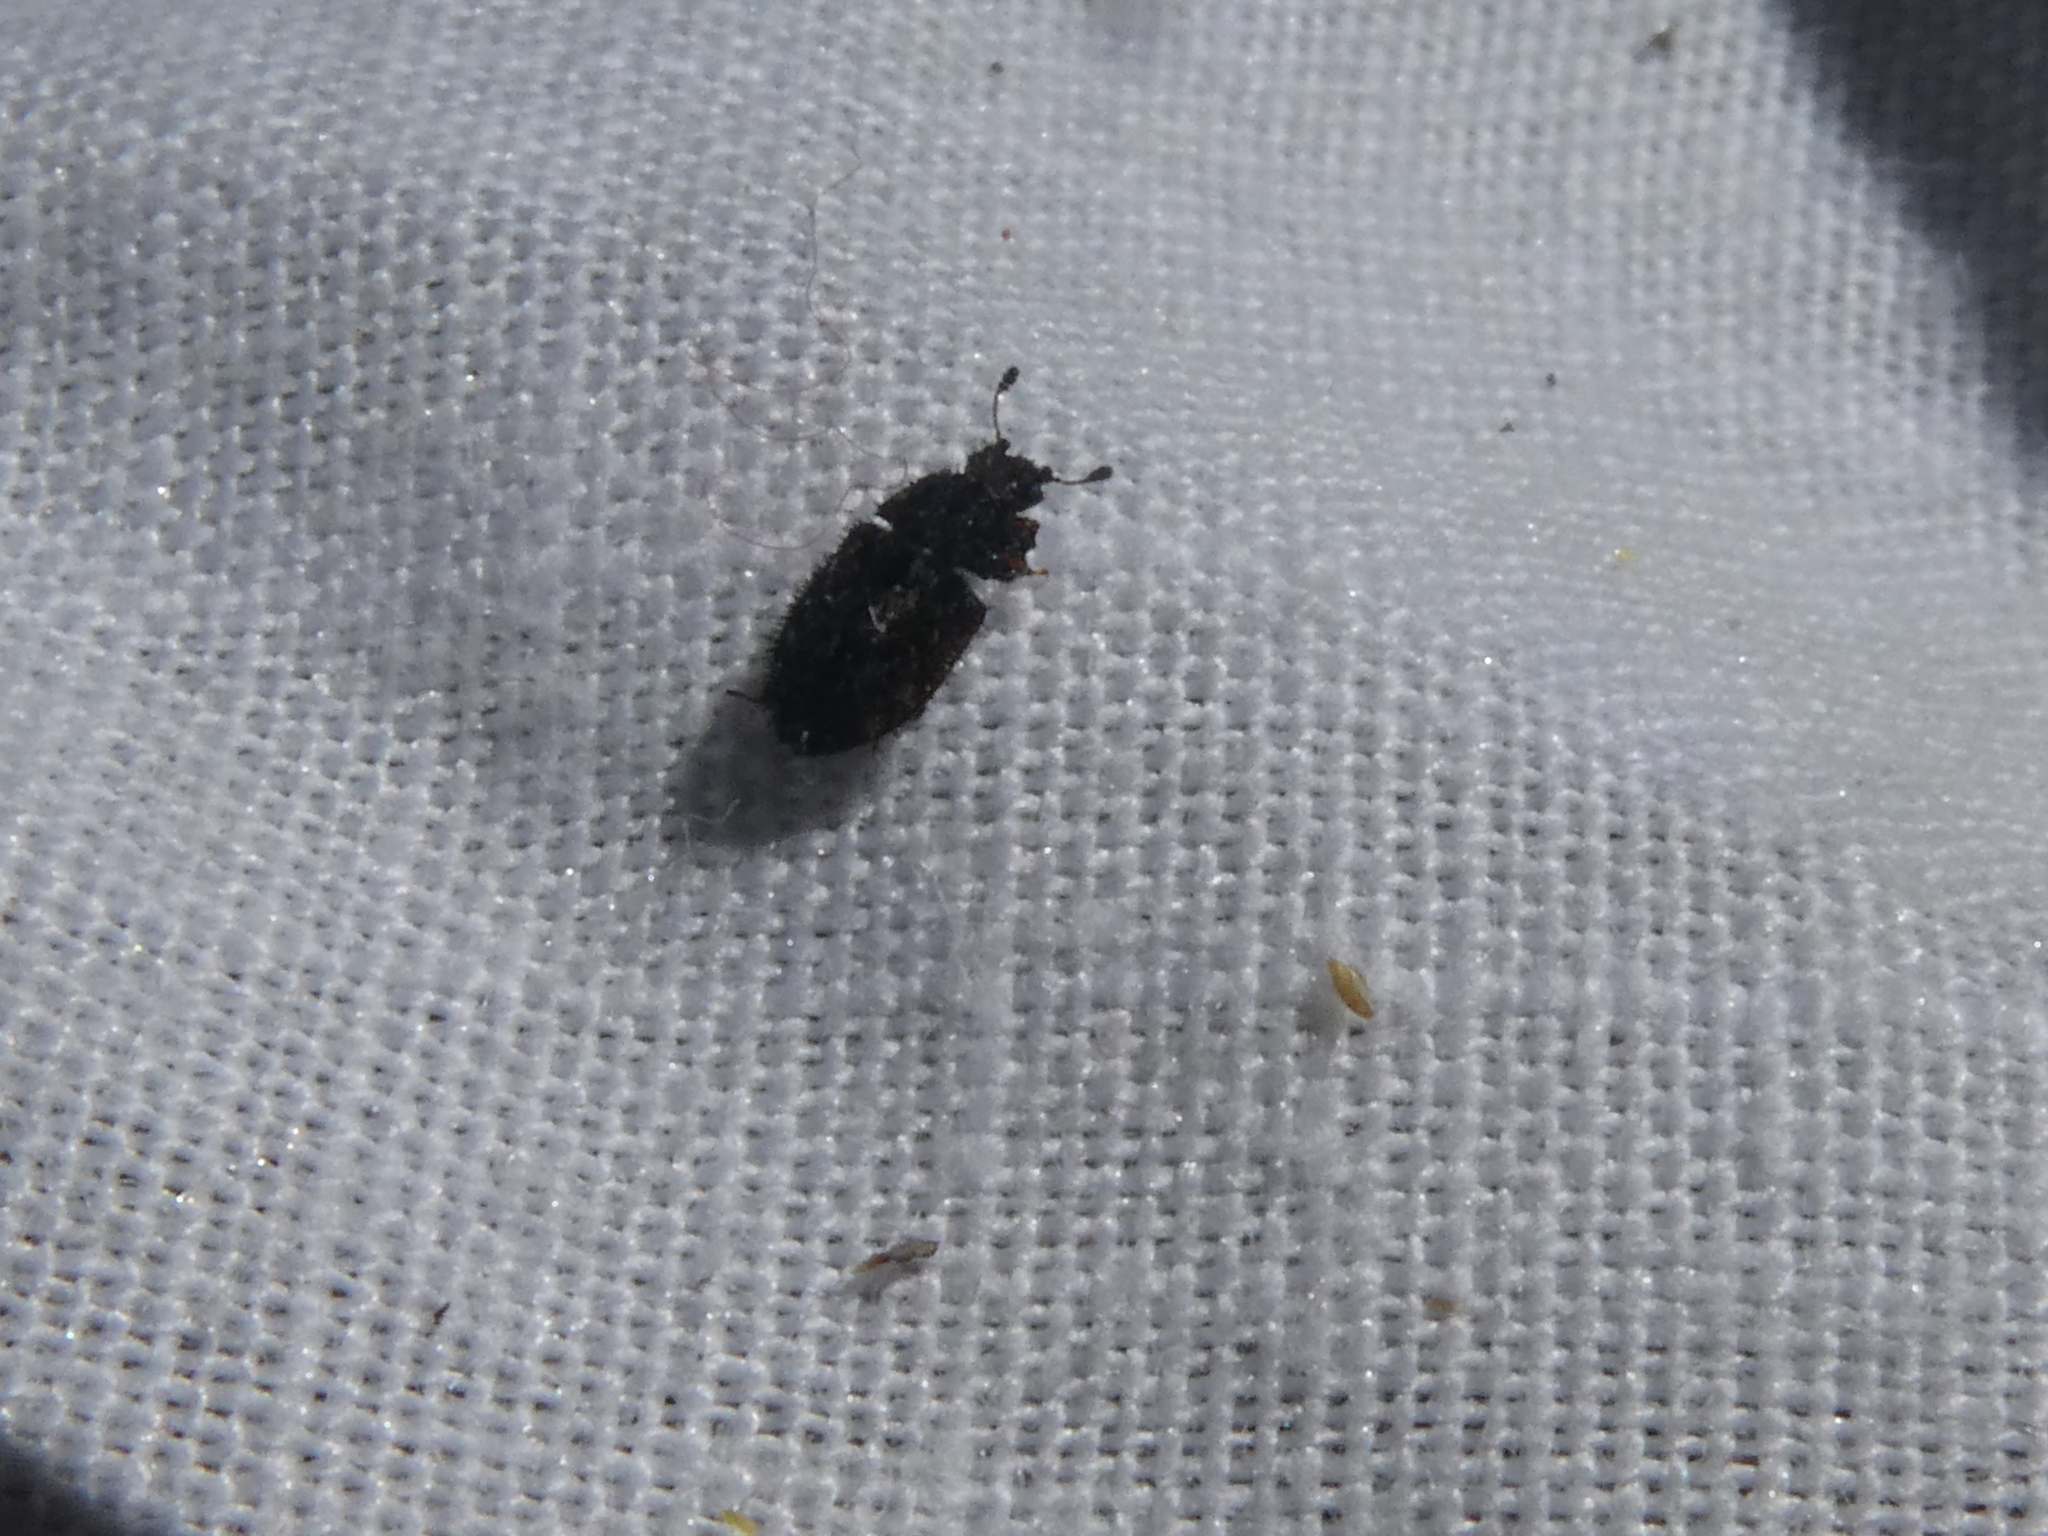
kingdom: Animalia
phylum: Arthropoda
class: Insecta
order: Coleoptera
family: Nitidulidae
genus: Hisparonia
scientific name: Hisparonia
